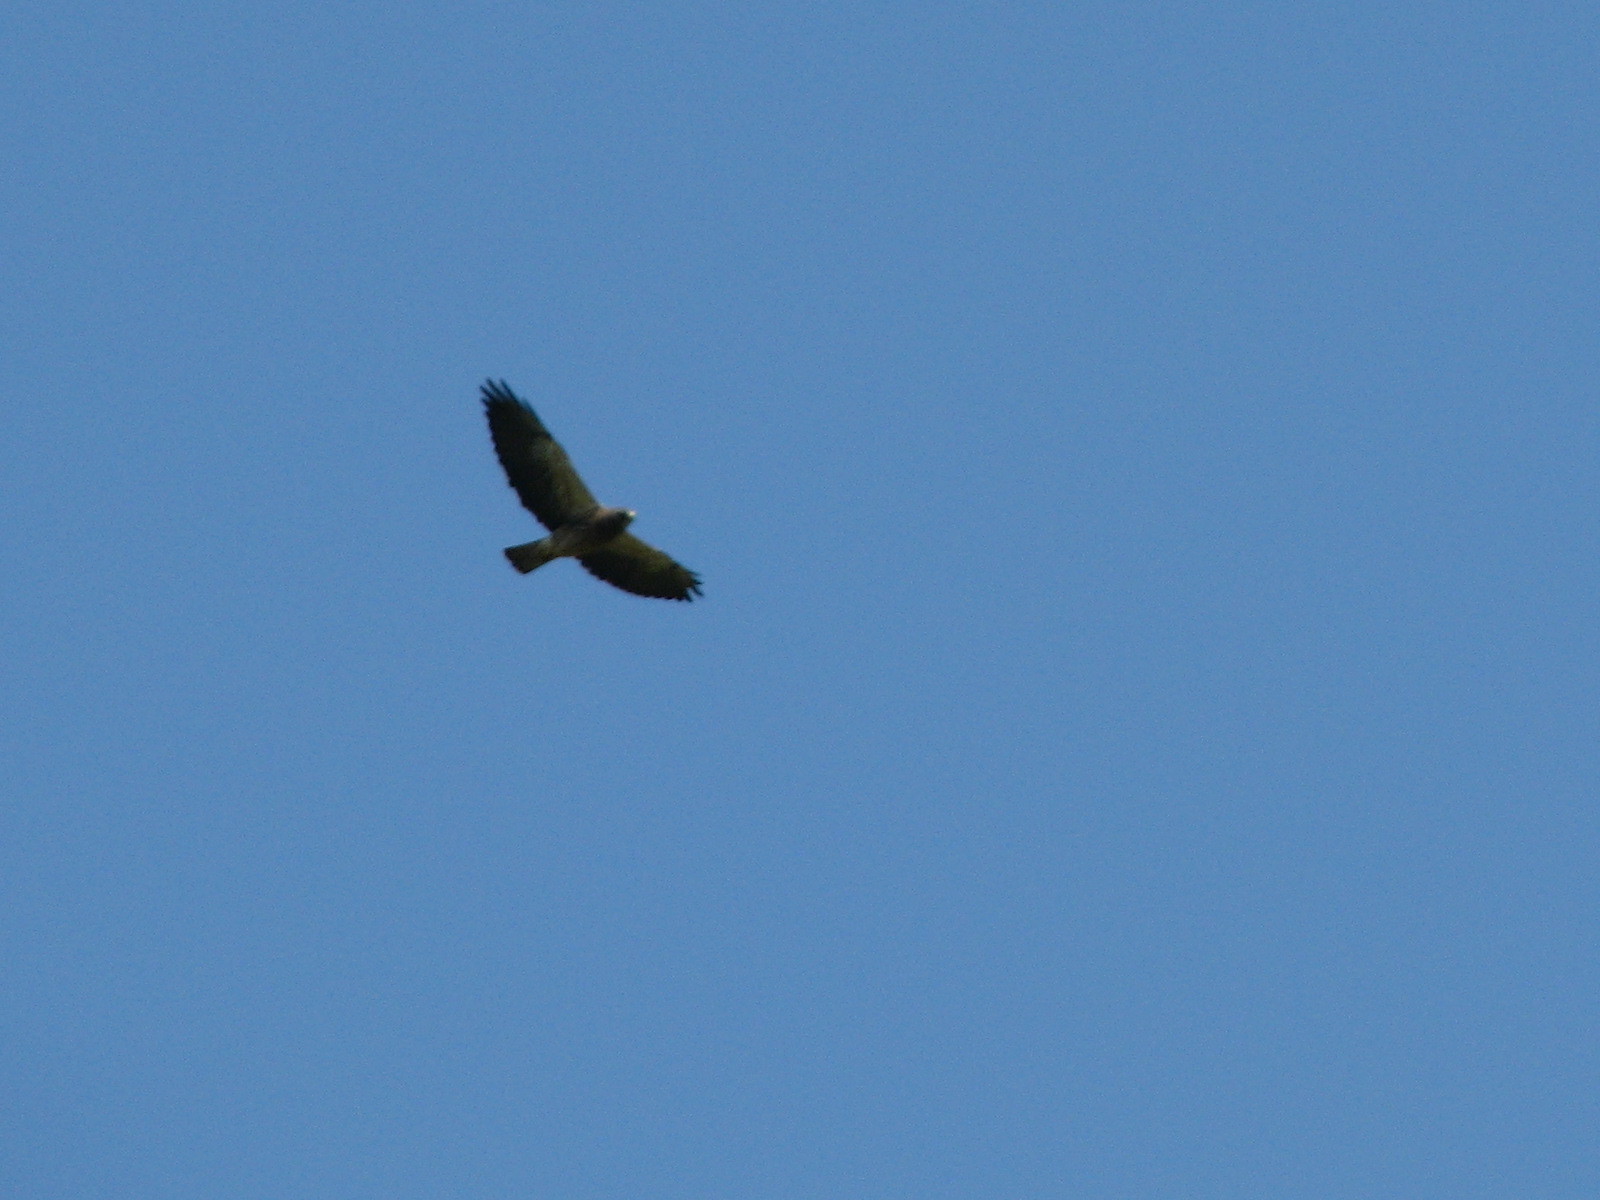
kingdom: Animalia
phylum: Chordata
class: Aves
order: Accipitriformes
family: Accipitridae
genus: Buteo
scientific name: Buteo swainsoni
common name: Swainson's hawk
